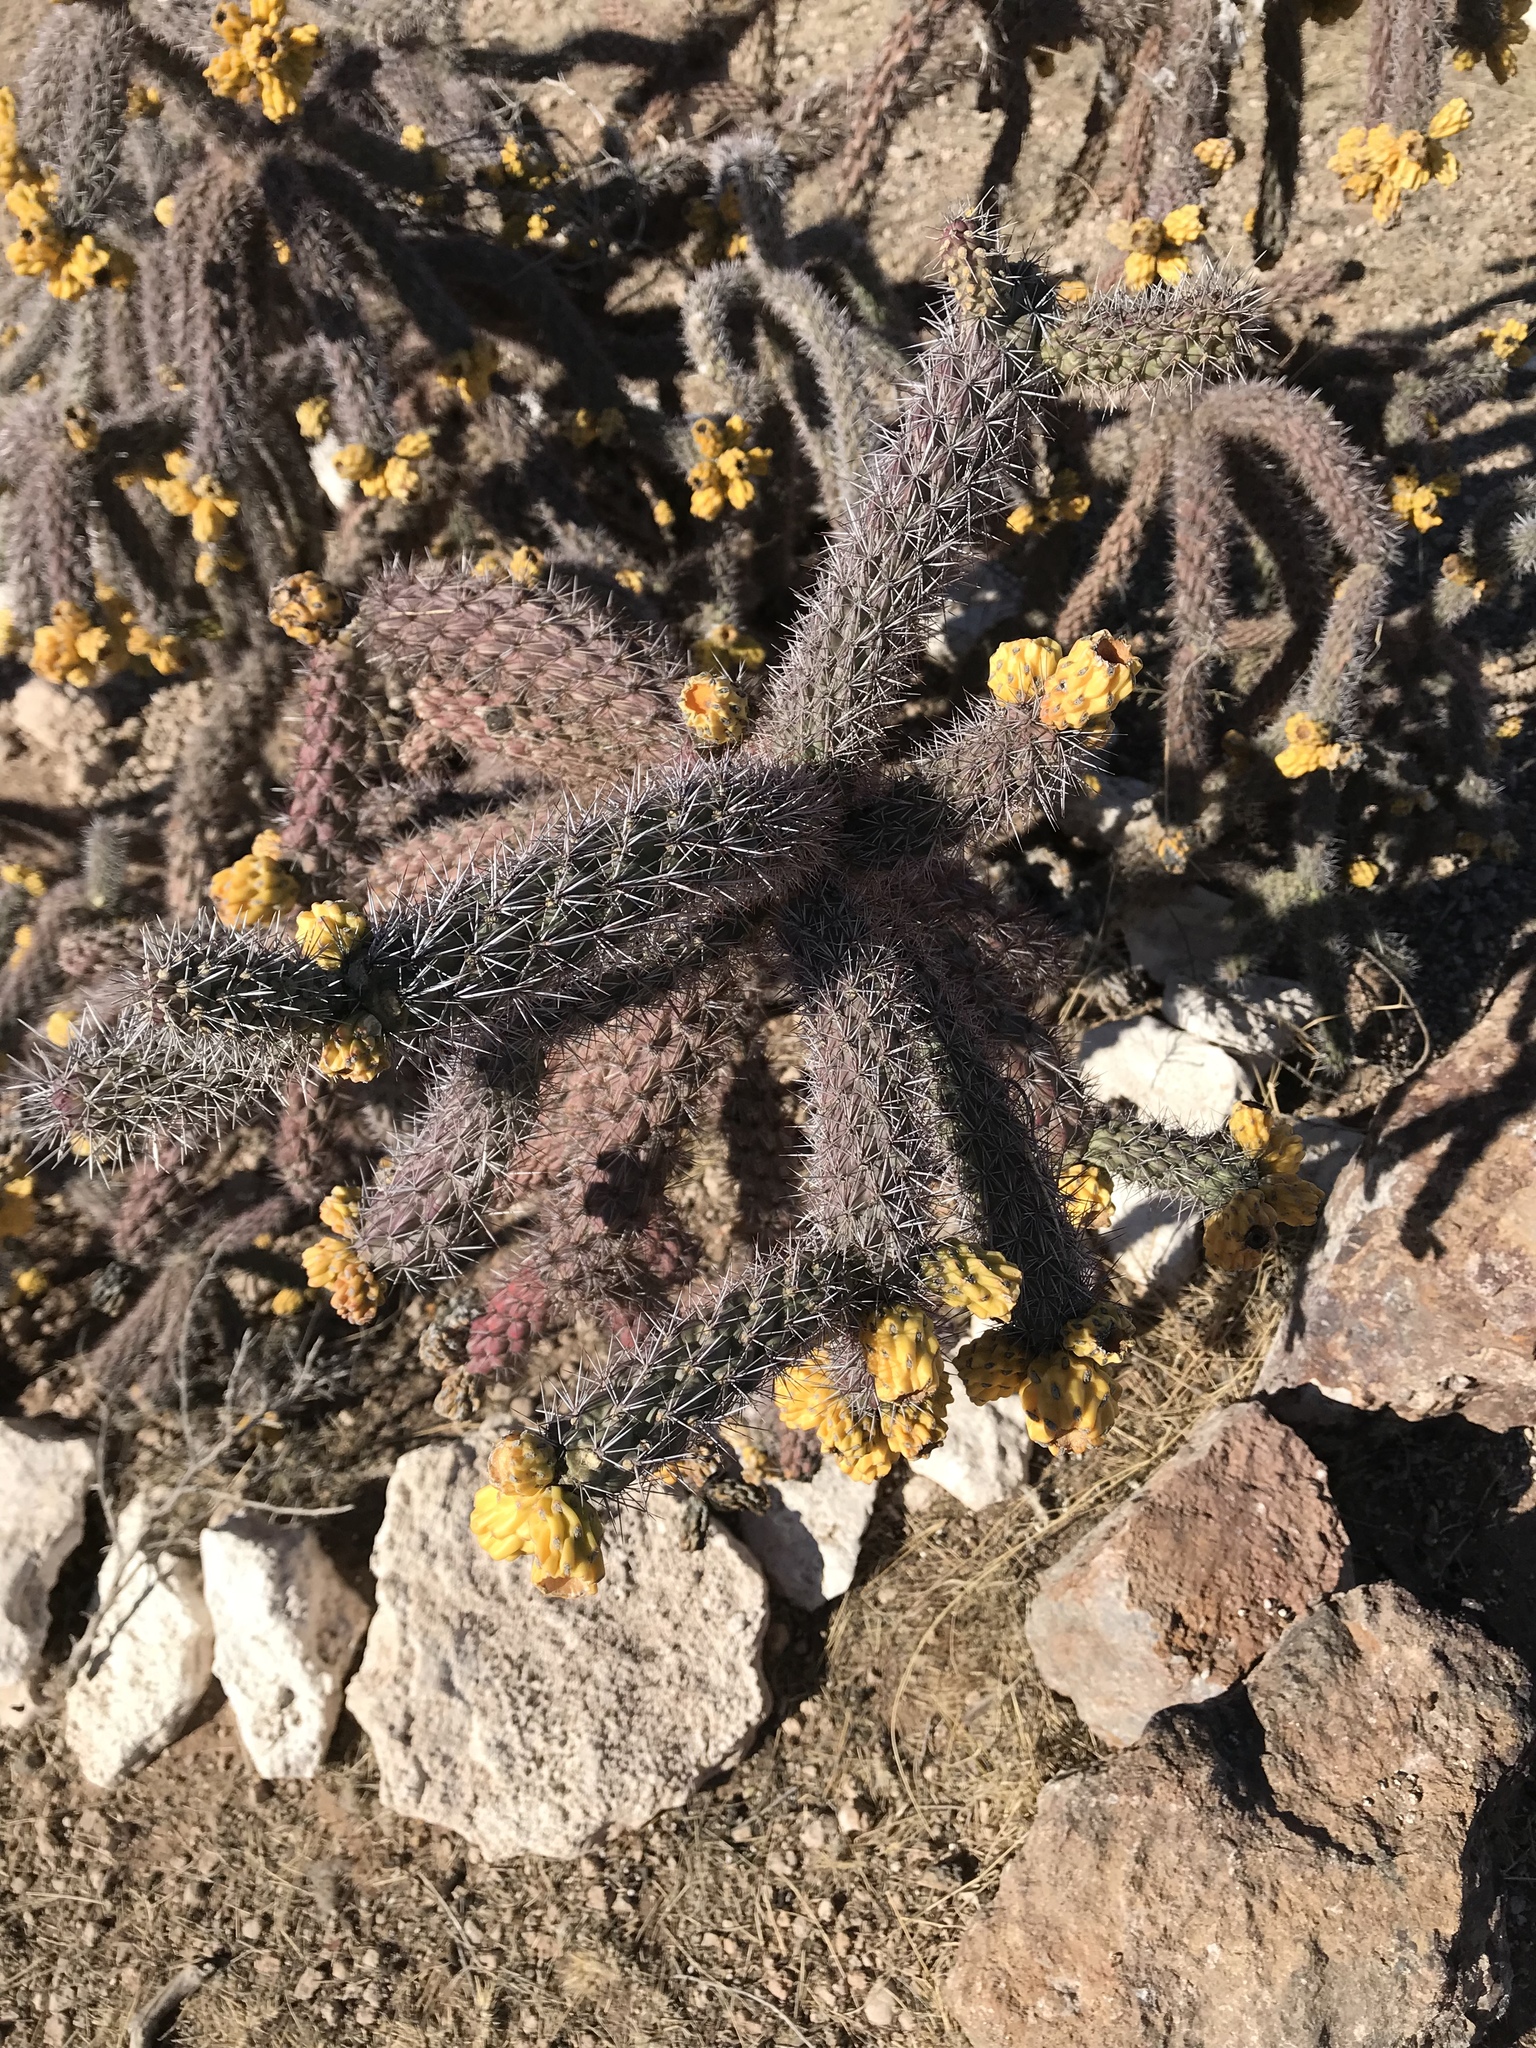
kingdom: Plantae
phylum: Tracheophyta
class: Magnoliopsida
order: Caryophyllales
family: Cactaceae
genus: Cylindropuntia
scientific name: Cylindropuntia imbricata
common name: Candelabrum cactus
